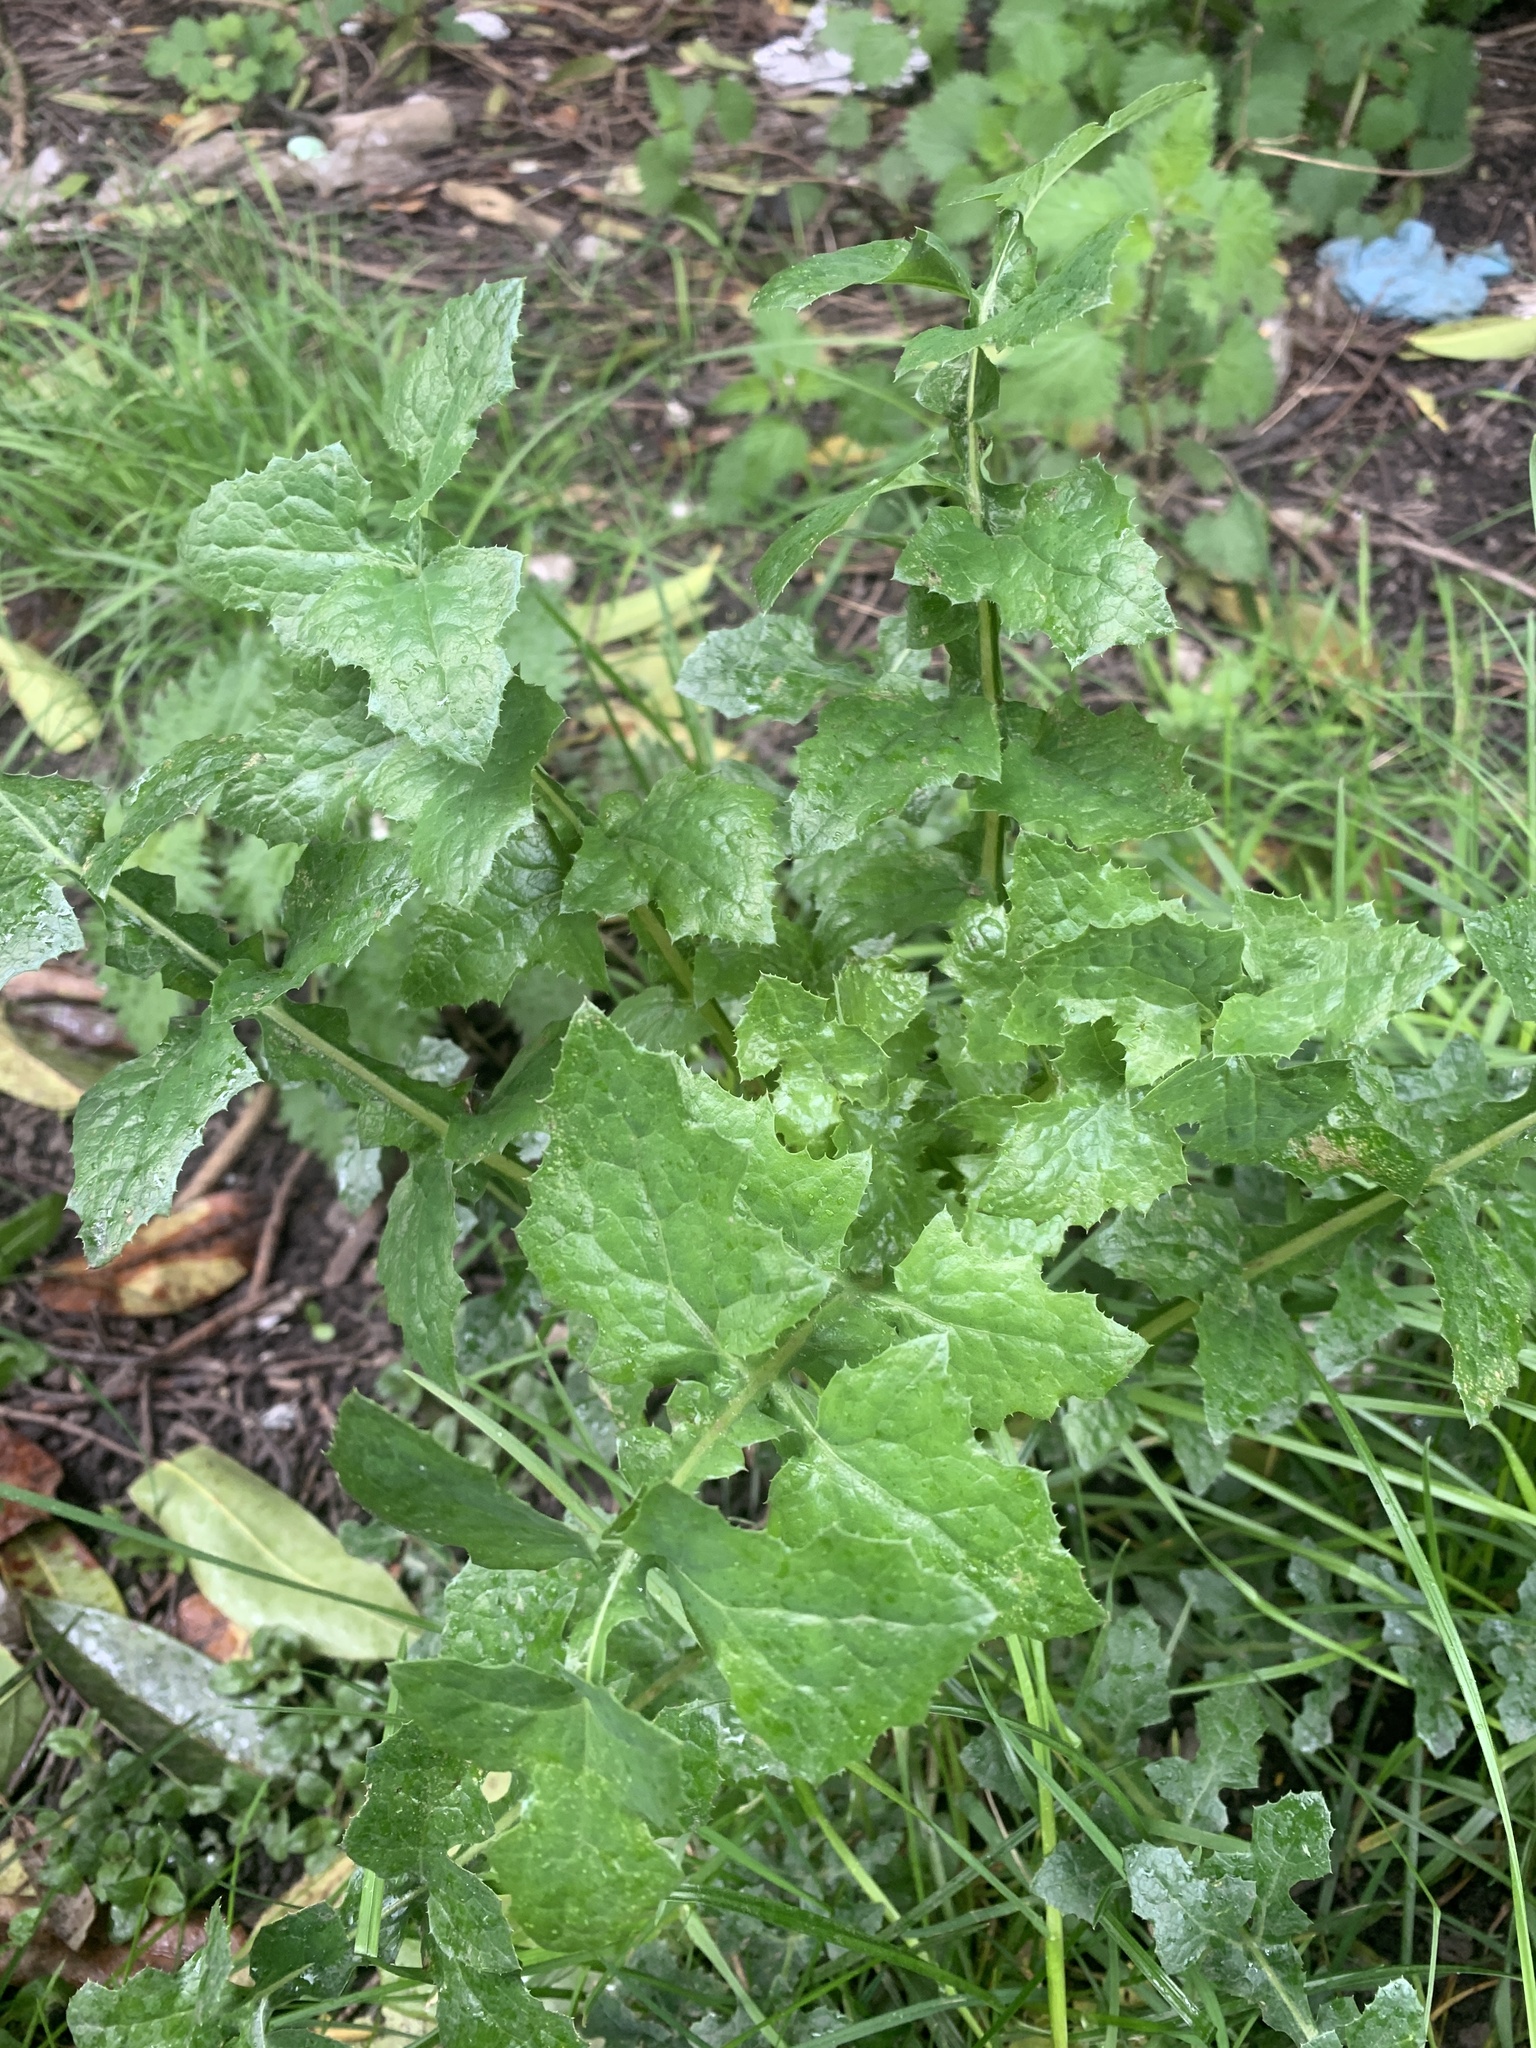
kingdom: Plantae
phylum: Tracheophyta
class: Magnoliopsida
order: Asterales
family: Asteraceae
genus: Sonchus
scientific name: Sonchus oleraceus
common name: Common sowthistle
